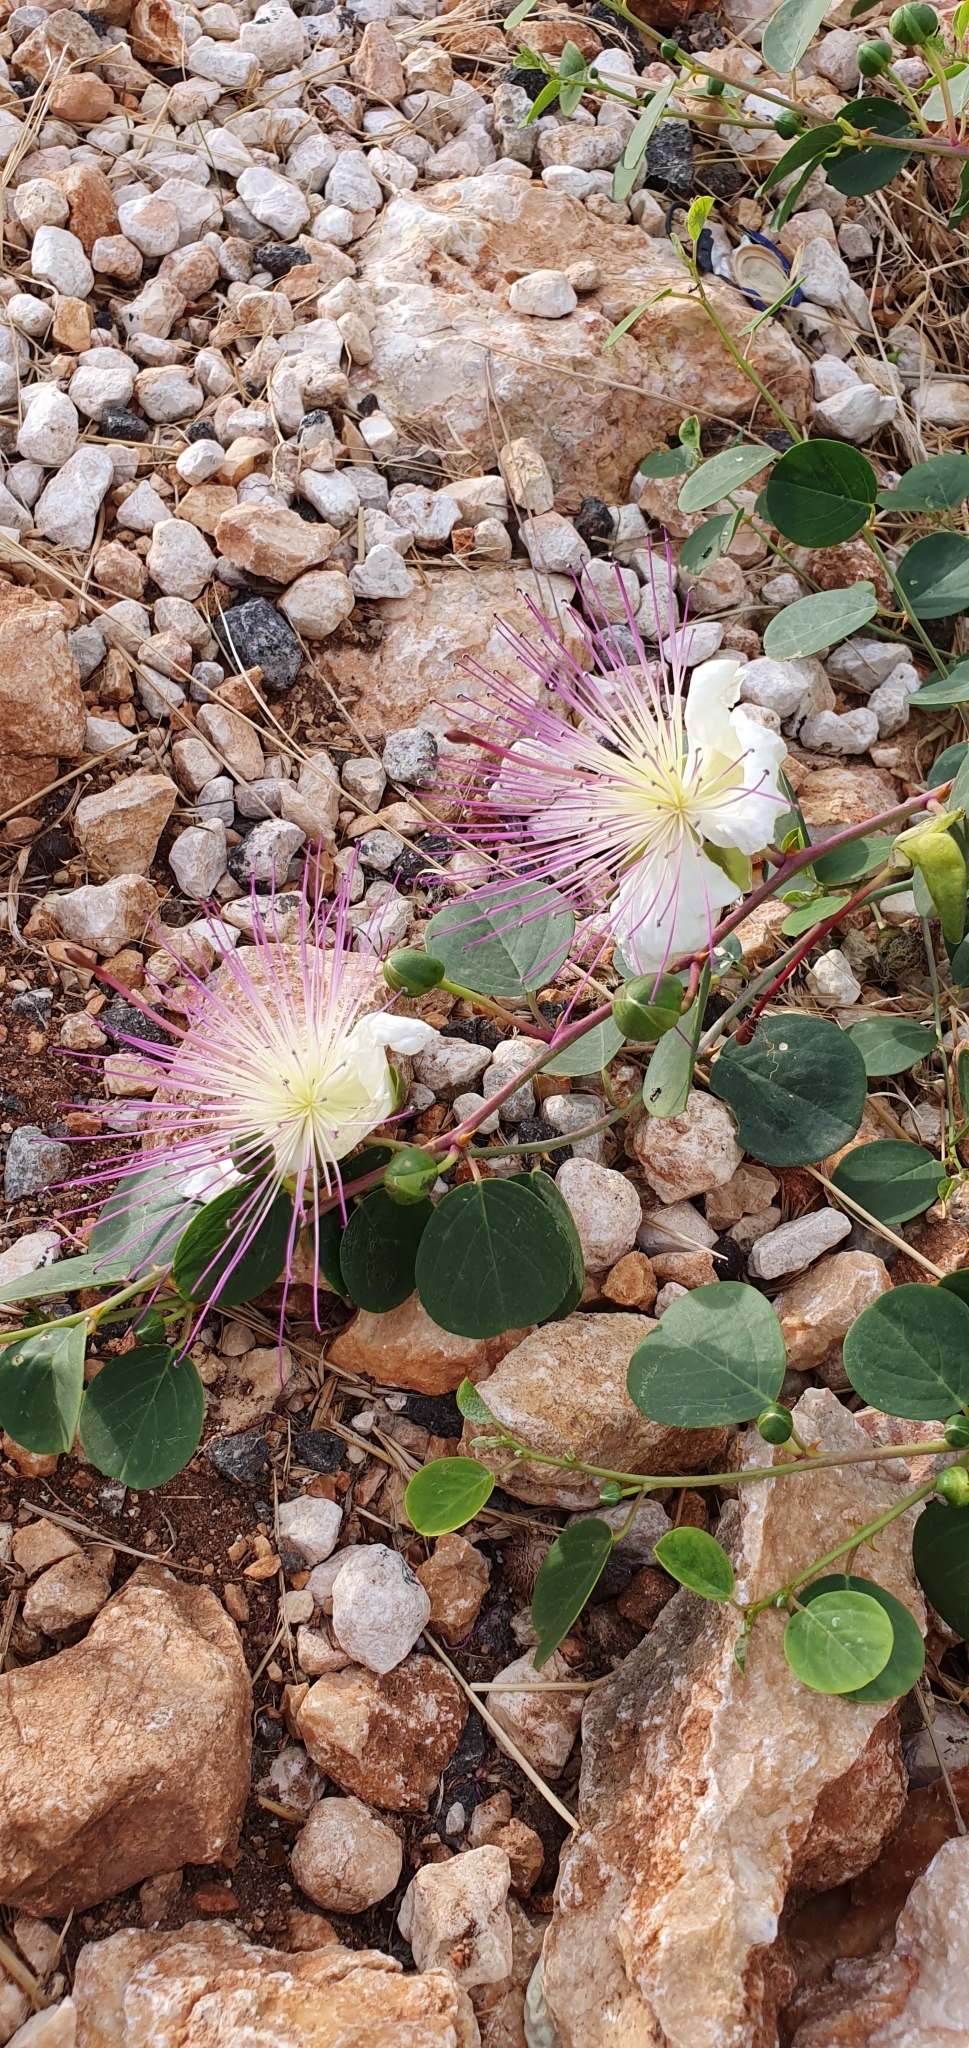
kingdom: Plantae
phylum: Tracheophyta
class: Magnoliopsida
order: Brassicales
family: Capparaceae
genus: Capparis
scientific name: Capparis spinosa
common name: Caper
